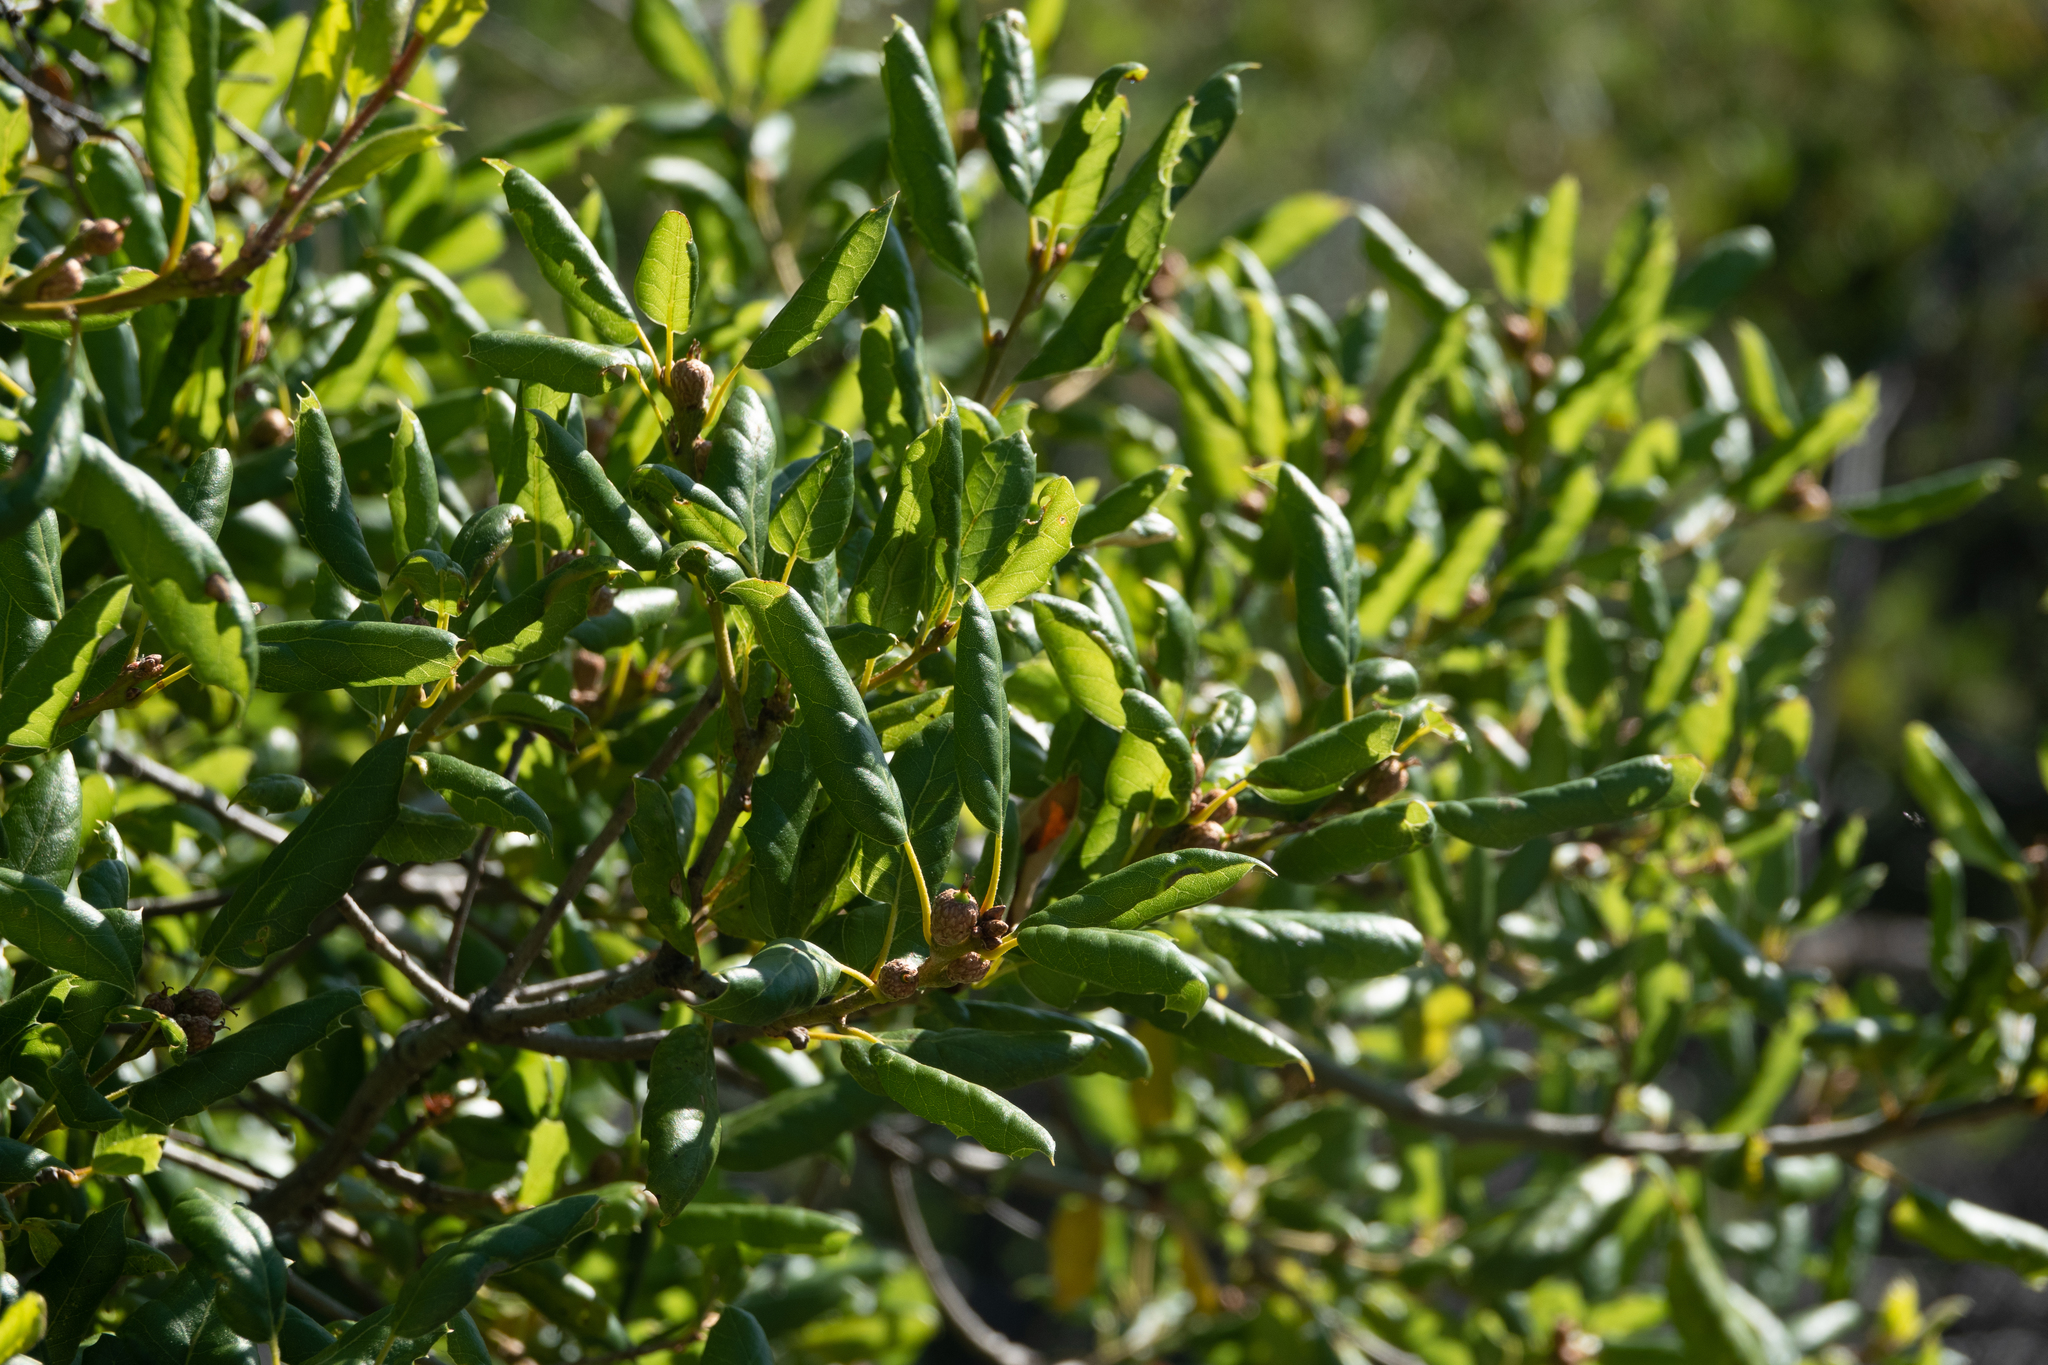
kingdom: Plantae
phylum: Tracheophyta
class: Magnoliopsida
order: Fagales
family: Fagaceae
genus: Quercus
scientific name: Quercus agrifolia
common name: California live oak
